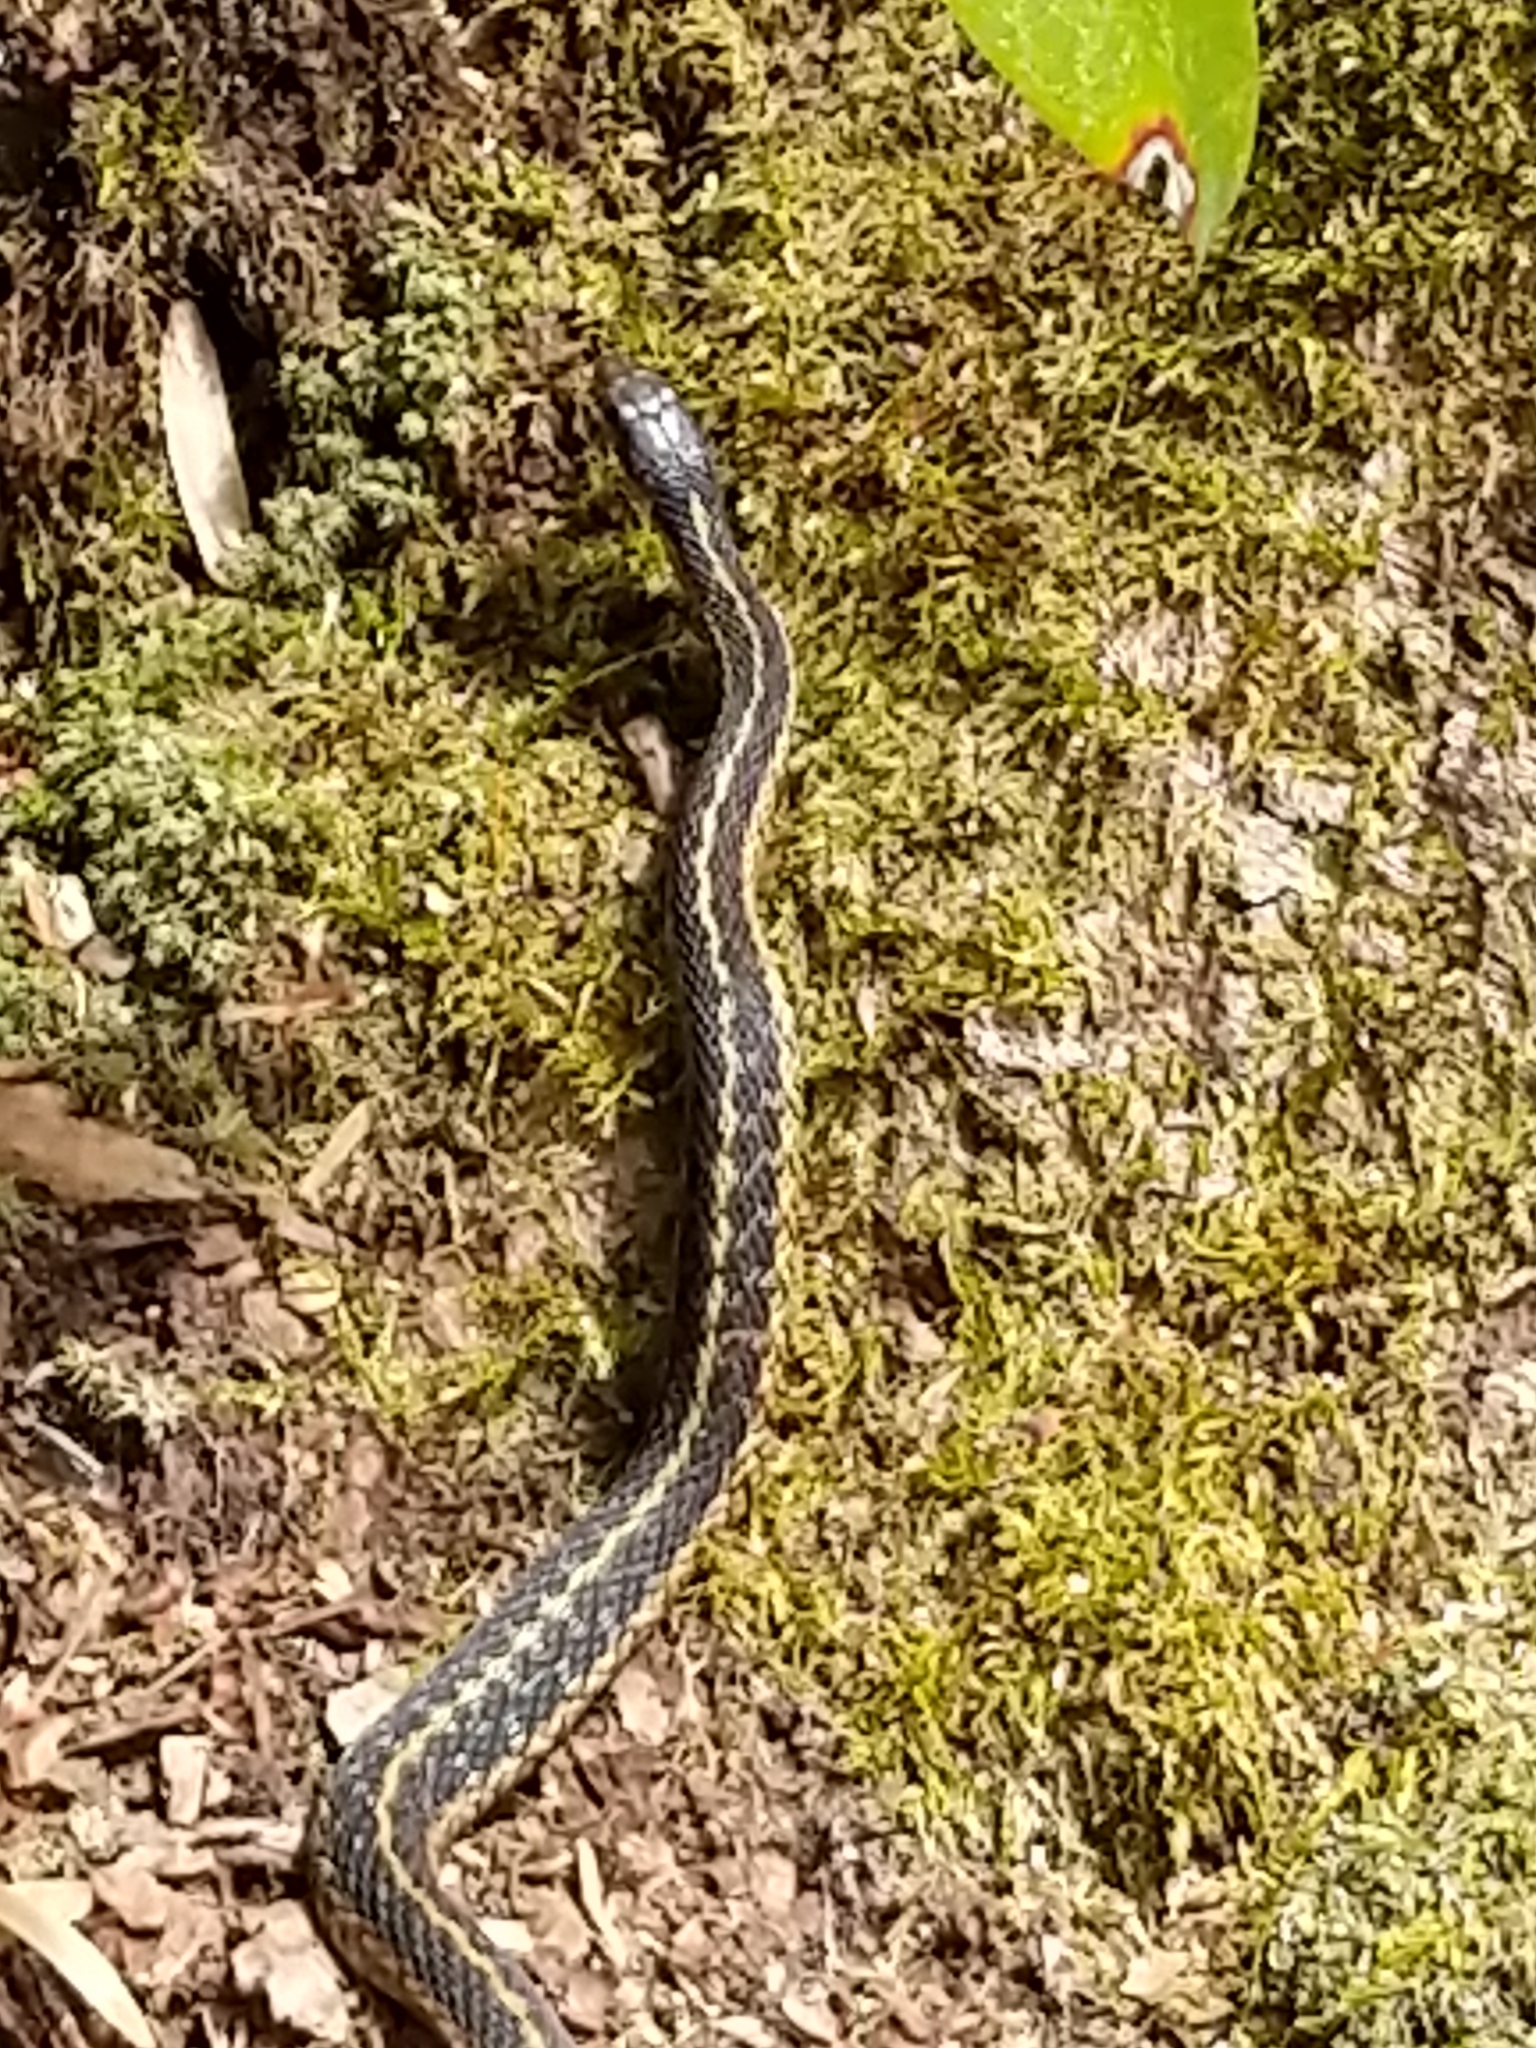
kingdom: Animalia
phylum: Chordata
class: Squamata
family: Colubridae
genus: Thamnophis
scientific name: Thamnophis sirtalis
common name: Common garter snake
